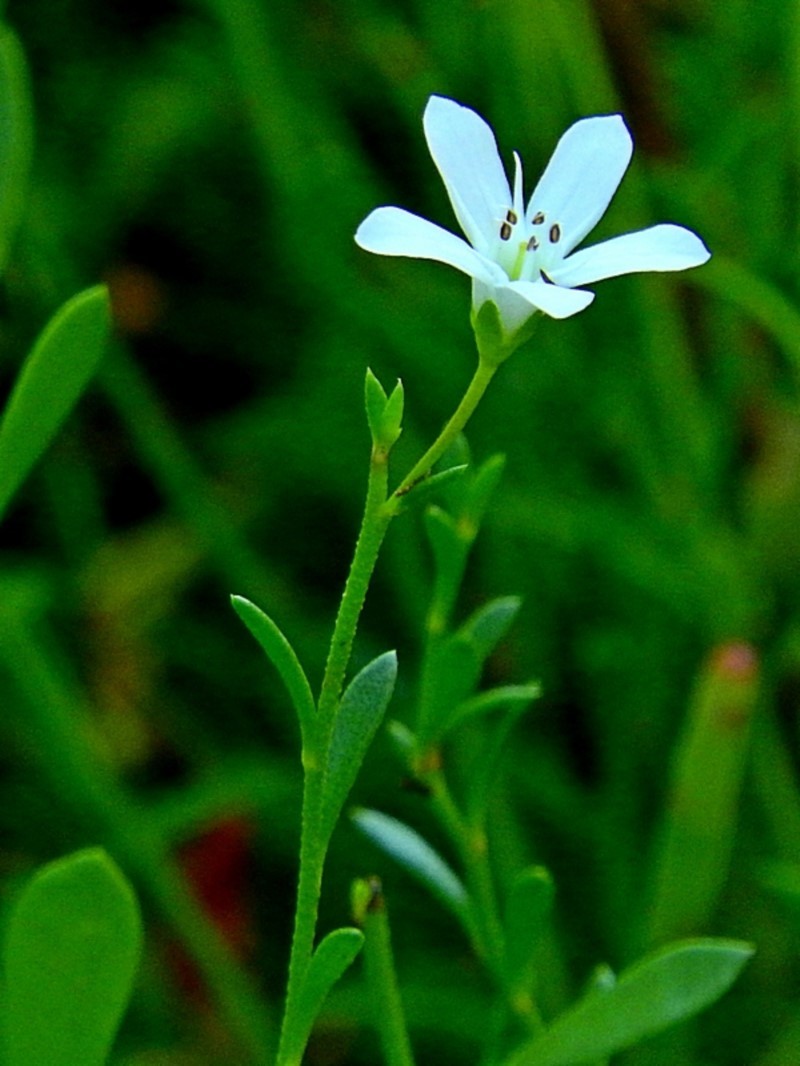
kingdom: Plantae
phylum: Tracheophyta
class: Magnoliopsida
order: Ericales
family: Primulaceae
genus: Samolus
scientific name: Samolus repens
